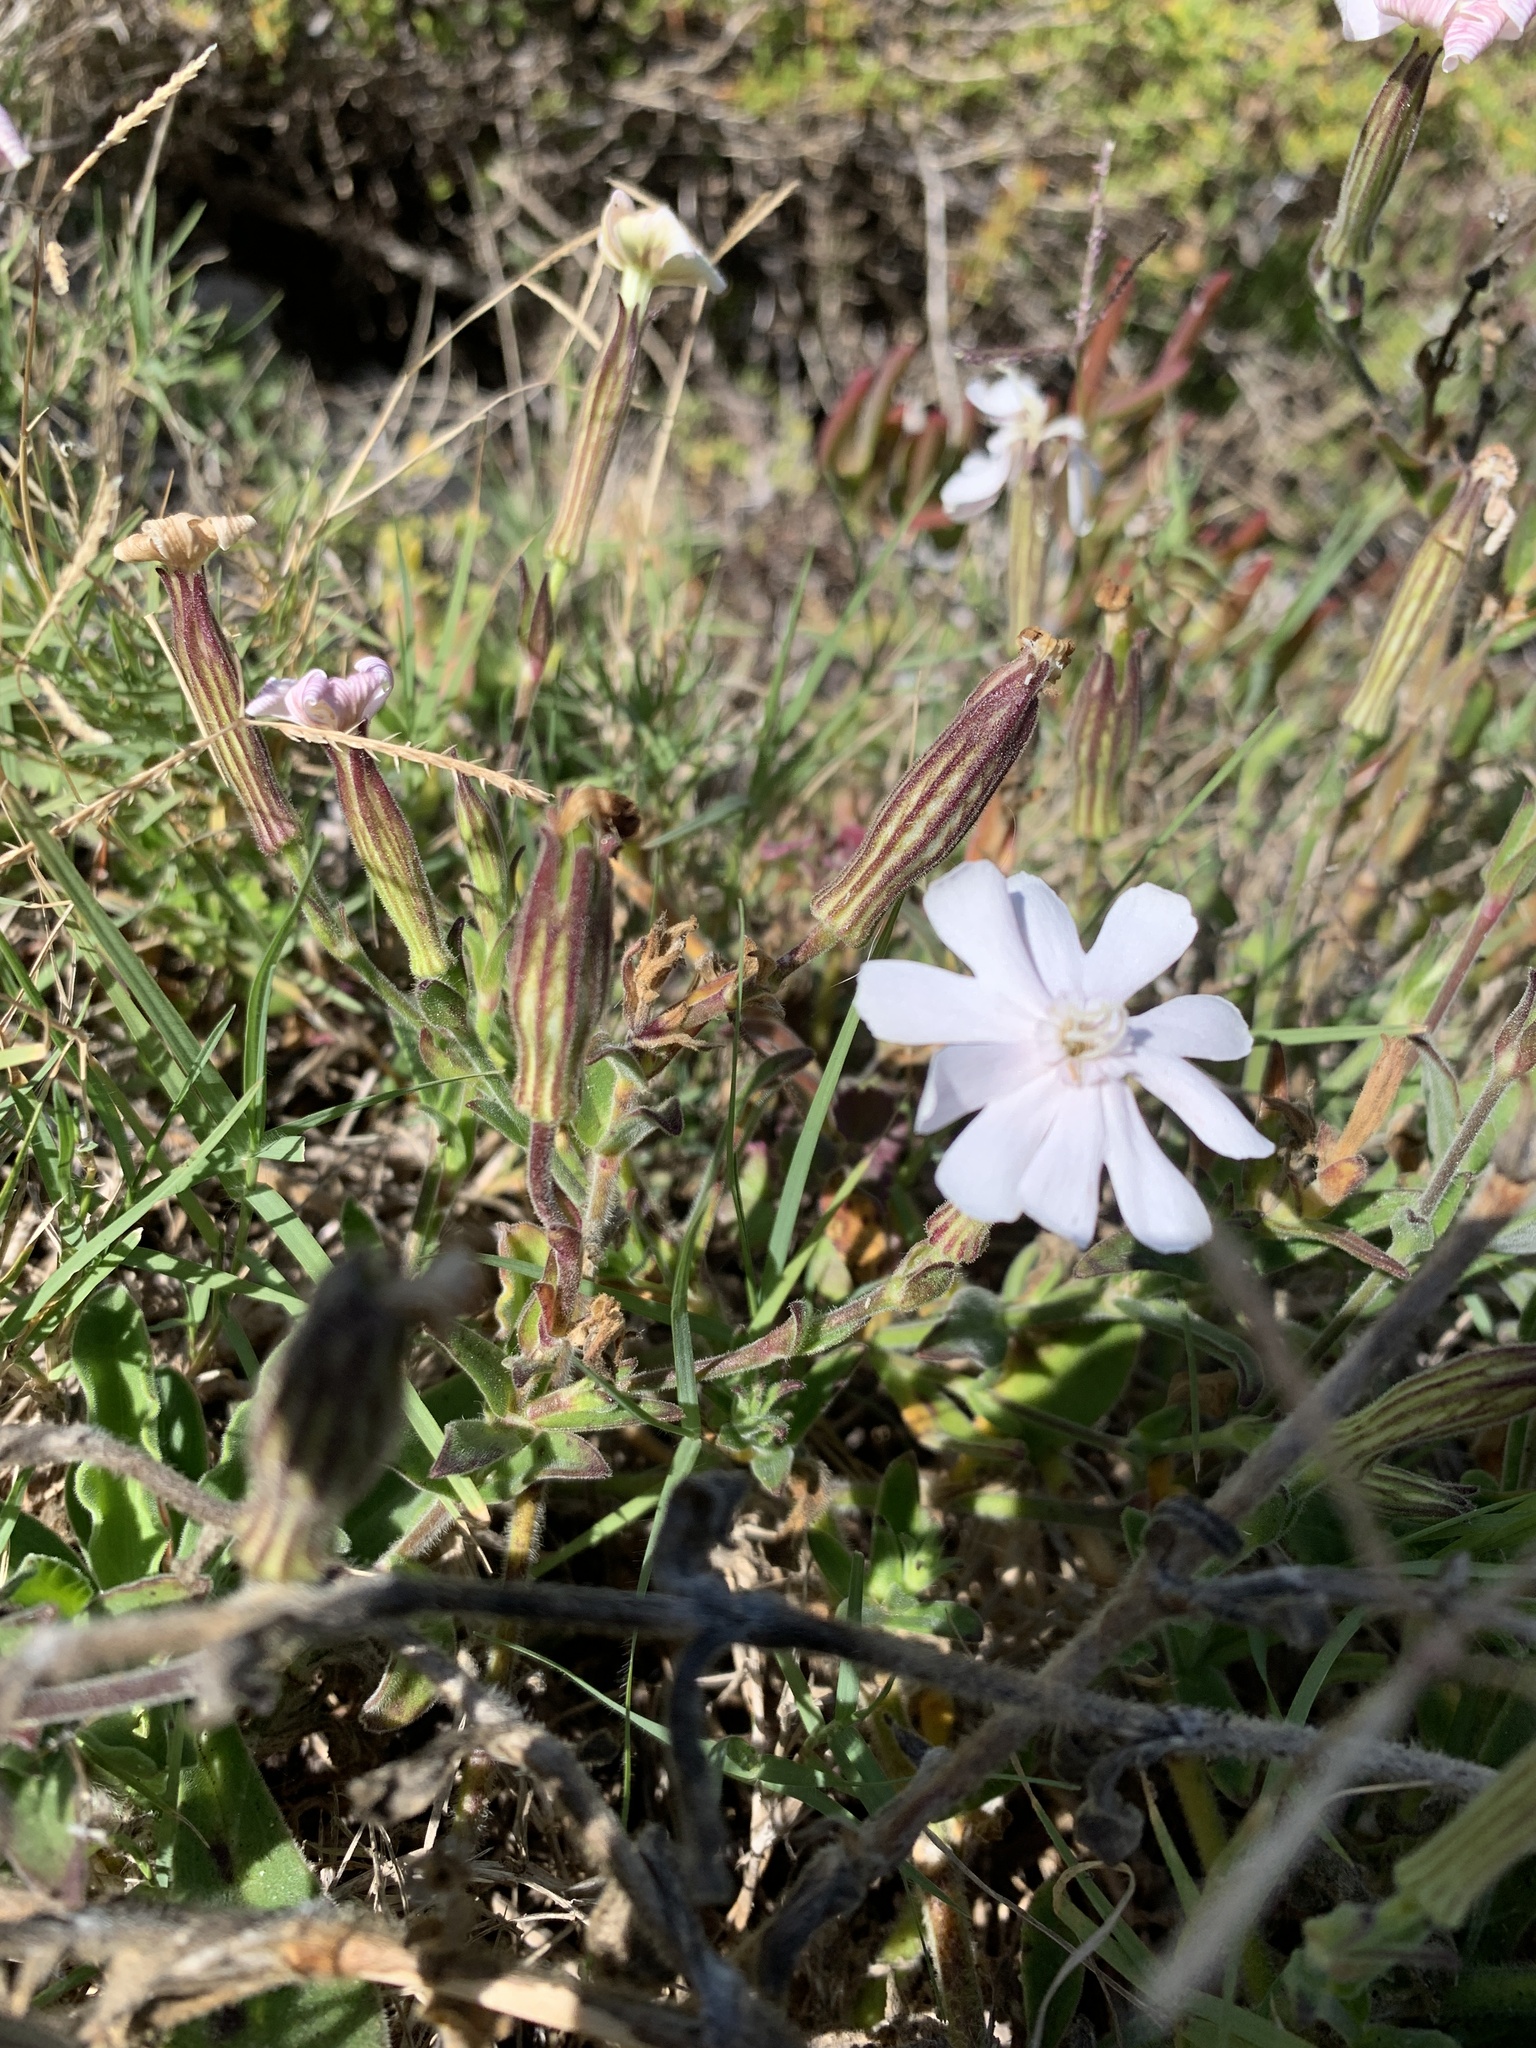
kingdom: Plantae
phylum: Tracheophyta
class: Magnoliopsida
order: Caryophyllales
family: Caryophyllaceae
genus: Silene
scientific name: Silene undulata
